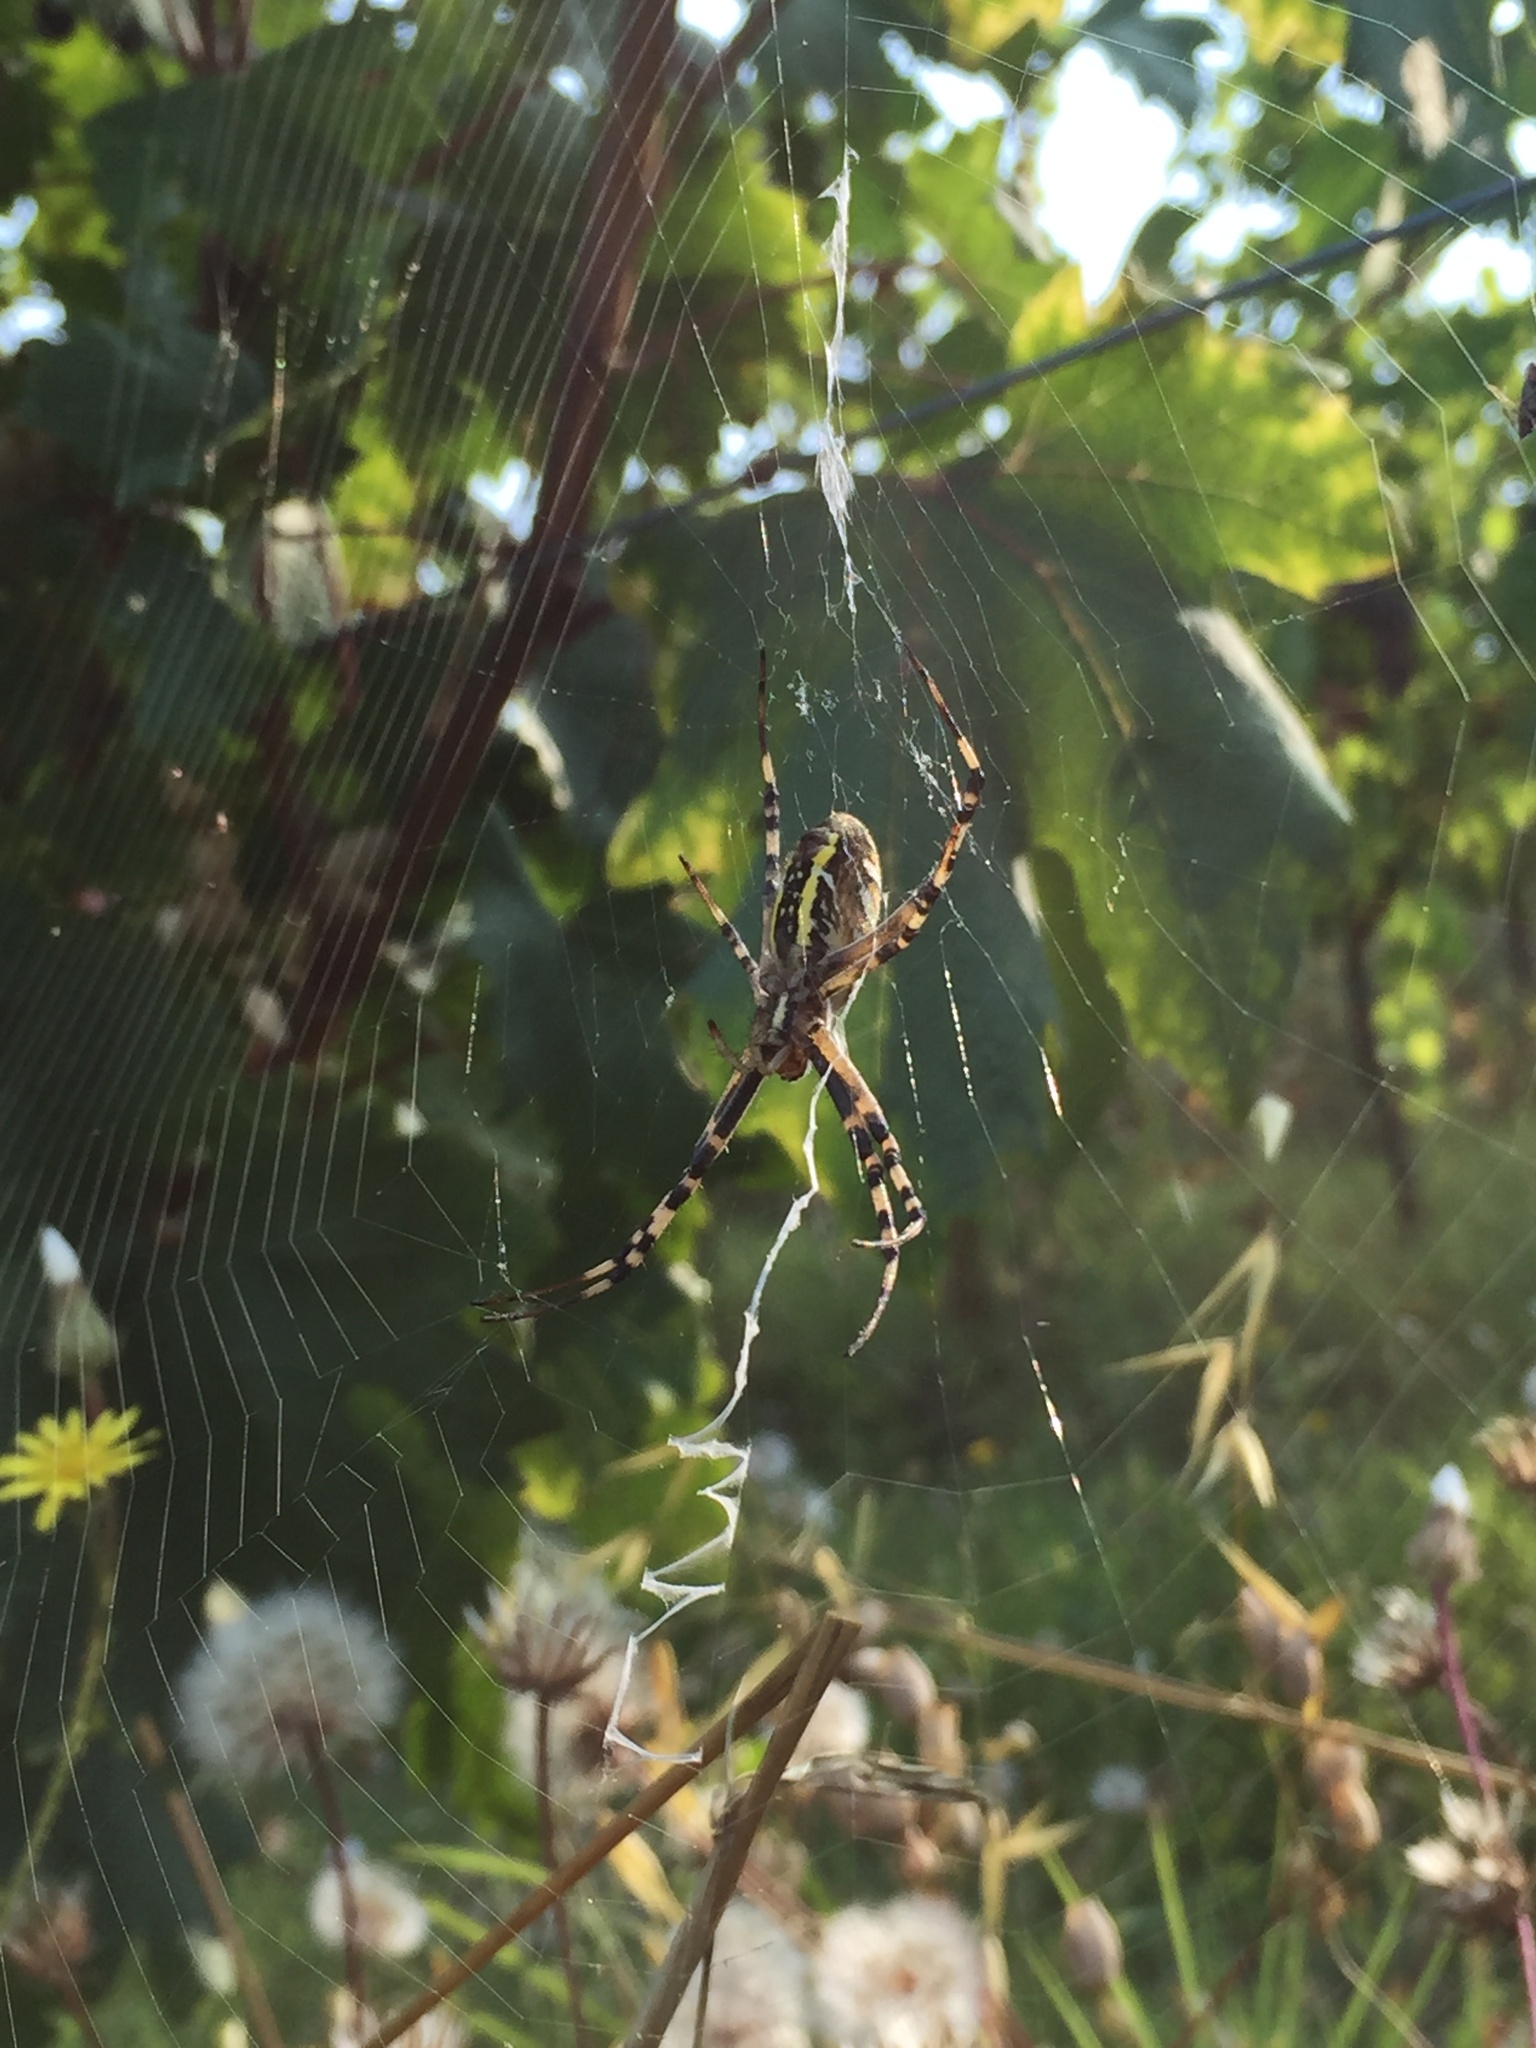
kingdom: Animalia
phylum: Arthropoda
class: Arachnida
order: Araneae
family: Araneidae
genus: Argiope
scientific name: Argiope bruennichi
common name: Wasp spider
